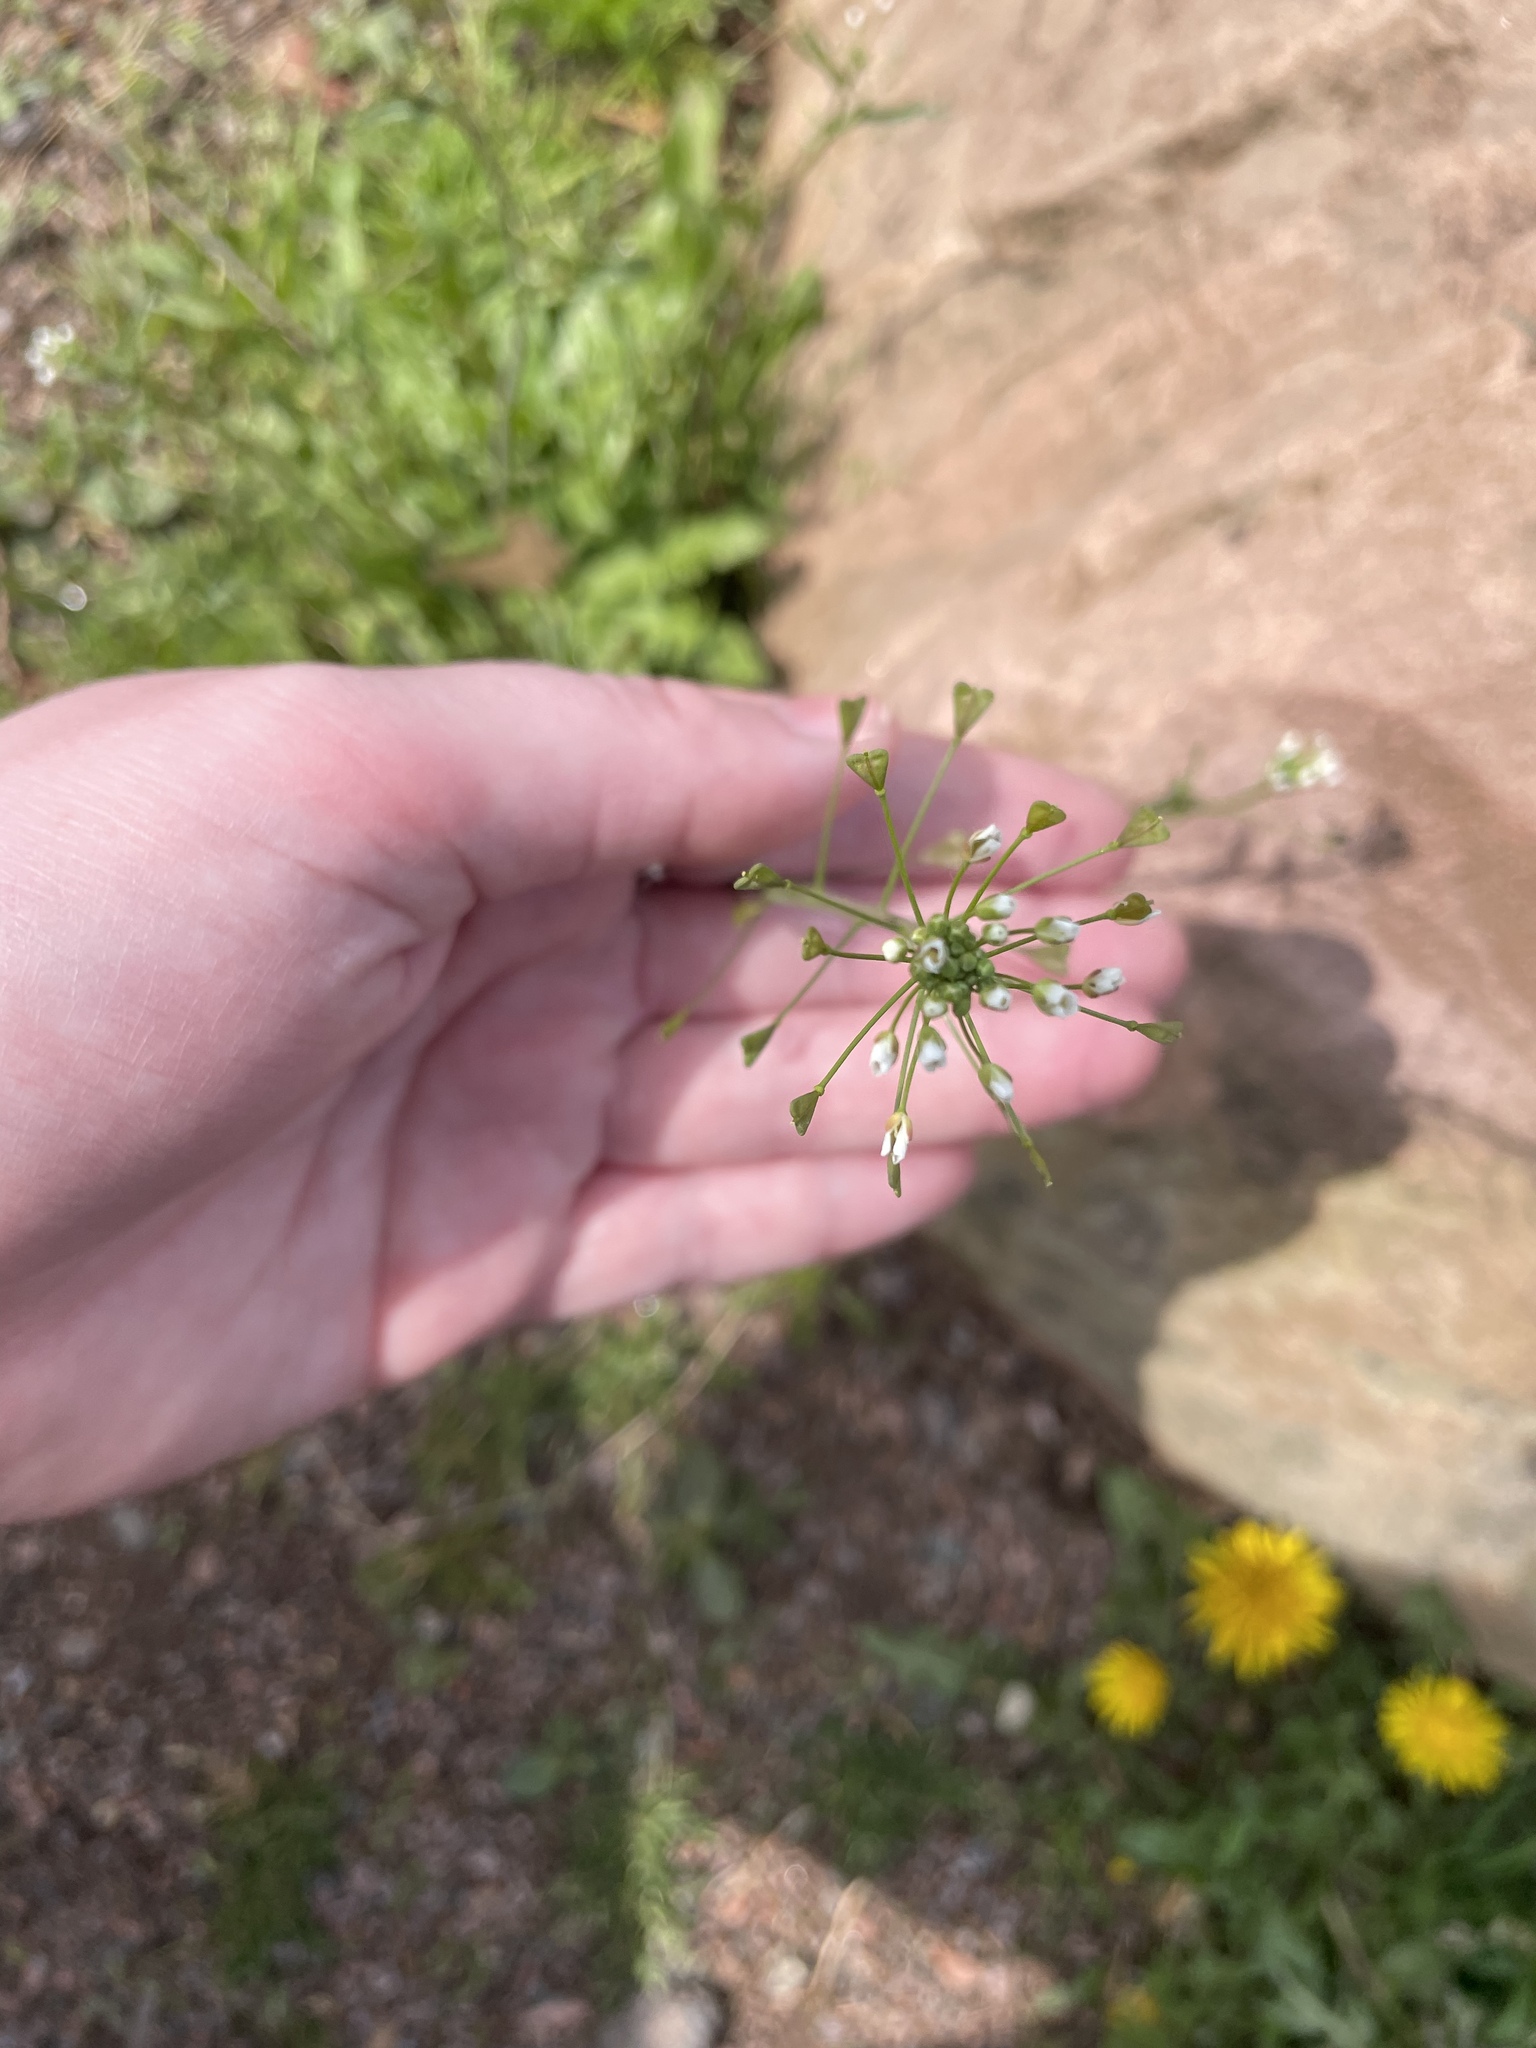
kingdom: Plantae
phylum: Tracheophyta
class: Magnoliopsida
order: Brassicales
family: Brassicaceae
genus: Capsella
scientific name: Capsella bursa-pastoris
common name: Shepherd's purse
